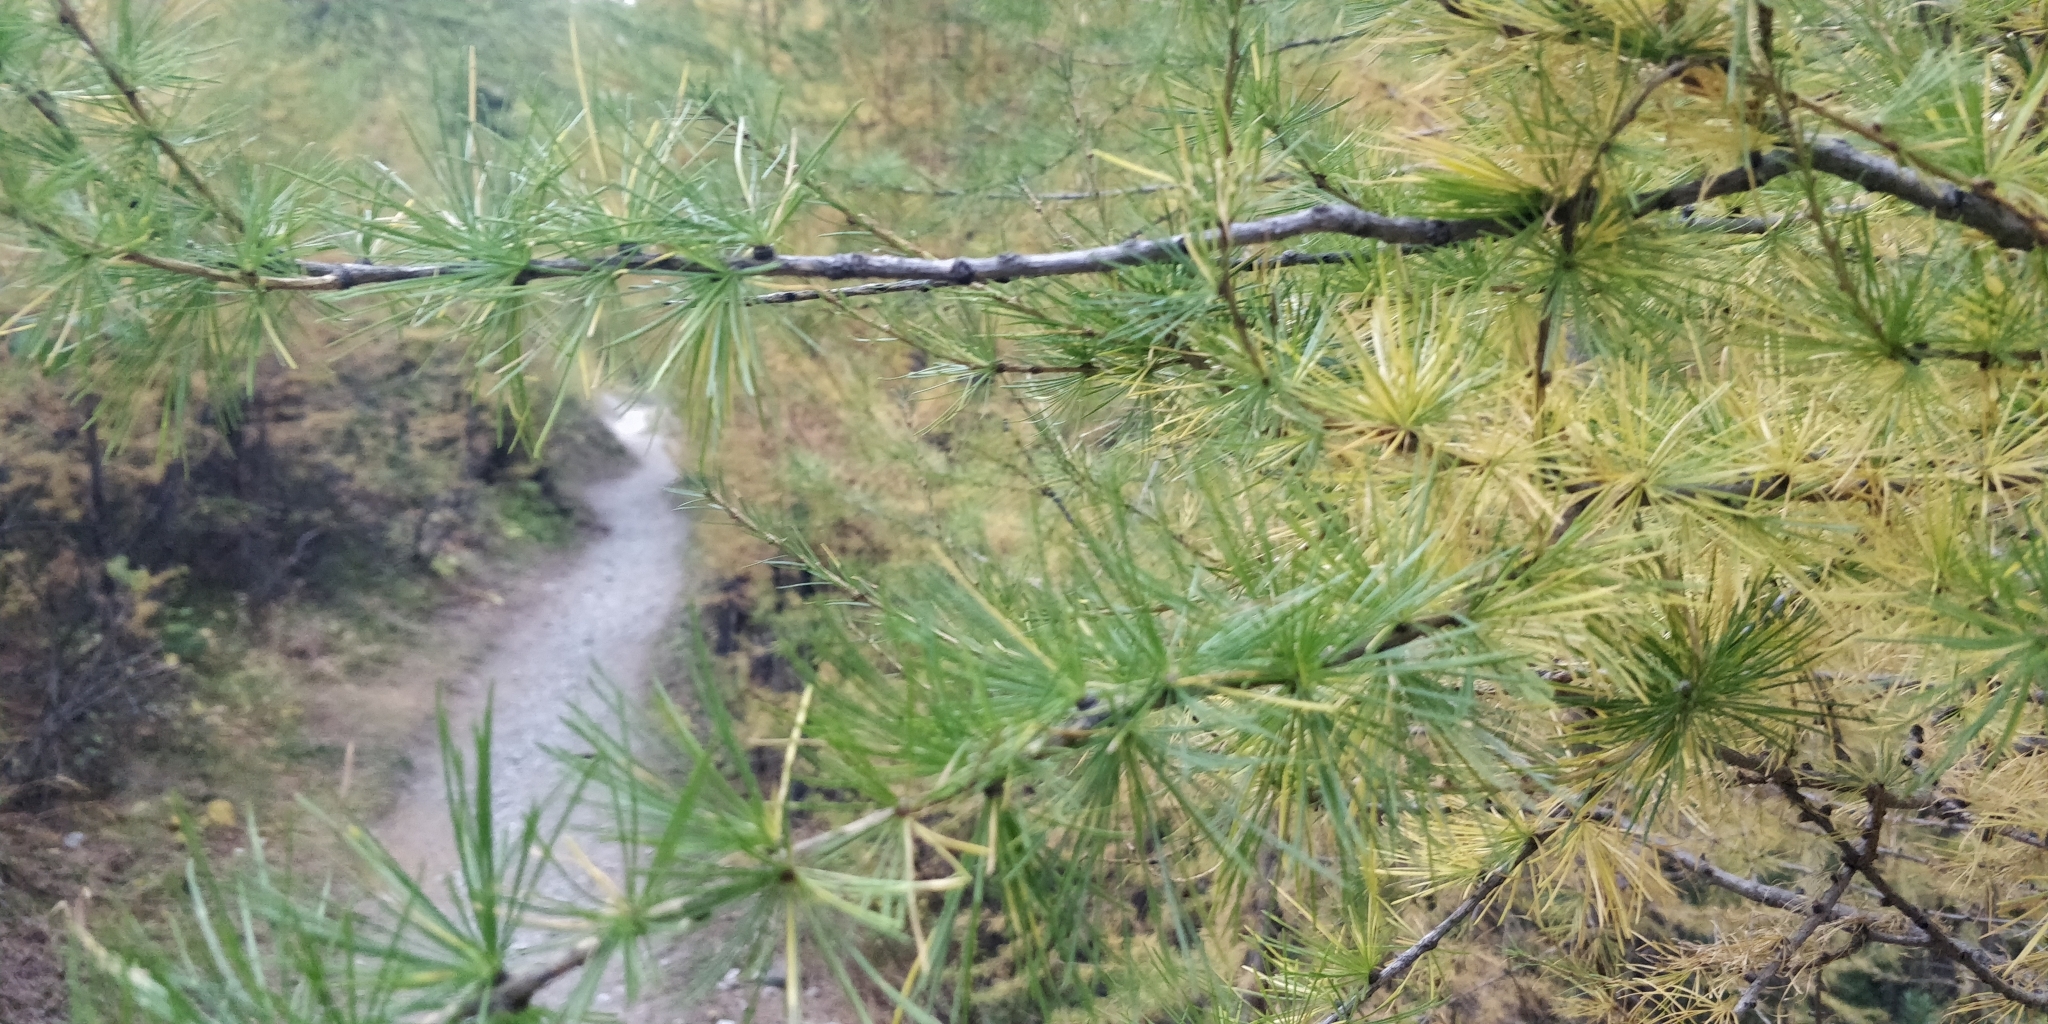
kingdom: Plantae
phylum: Tracheophyta
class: Pinopsida
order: Pinales
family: Pinaceae
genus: Larix
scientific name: Larix decidua
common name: European larch
